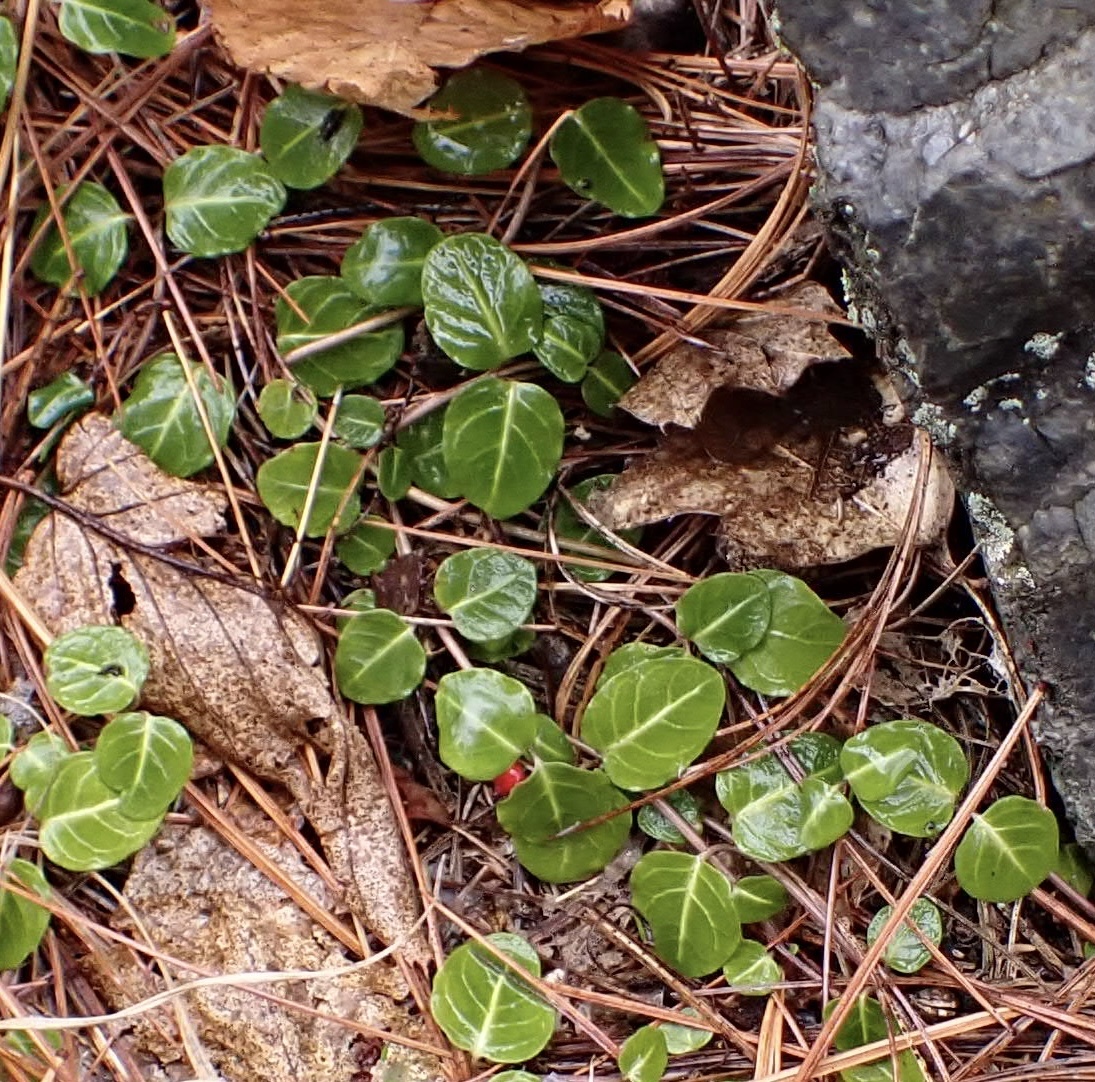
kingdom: Plantae
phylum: Tracheophyta
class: Magnoliopsida
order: Gentianales
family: Rubiaceae
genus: Mitchella
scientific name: Mitchella repens
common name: Partridge-berry
